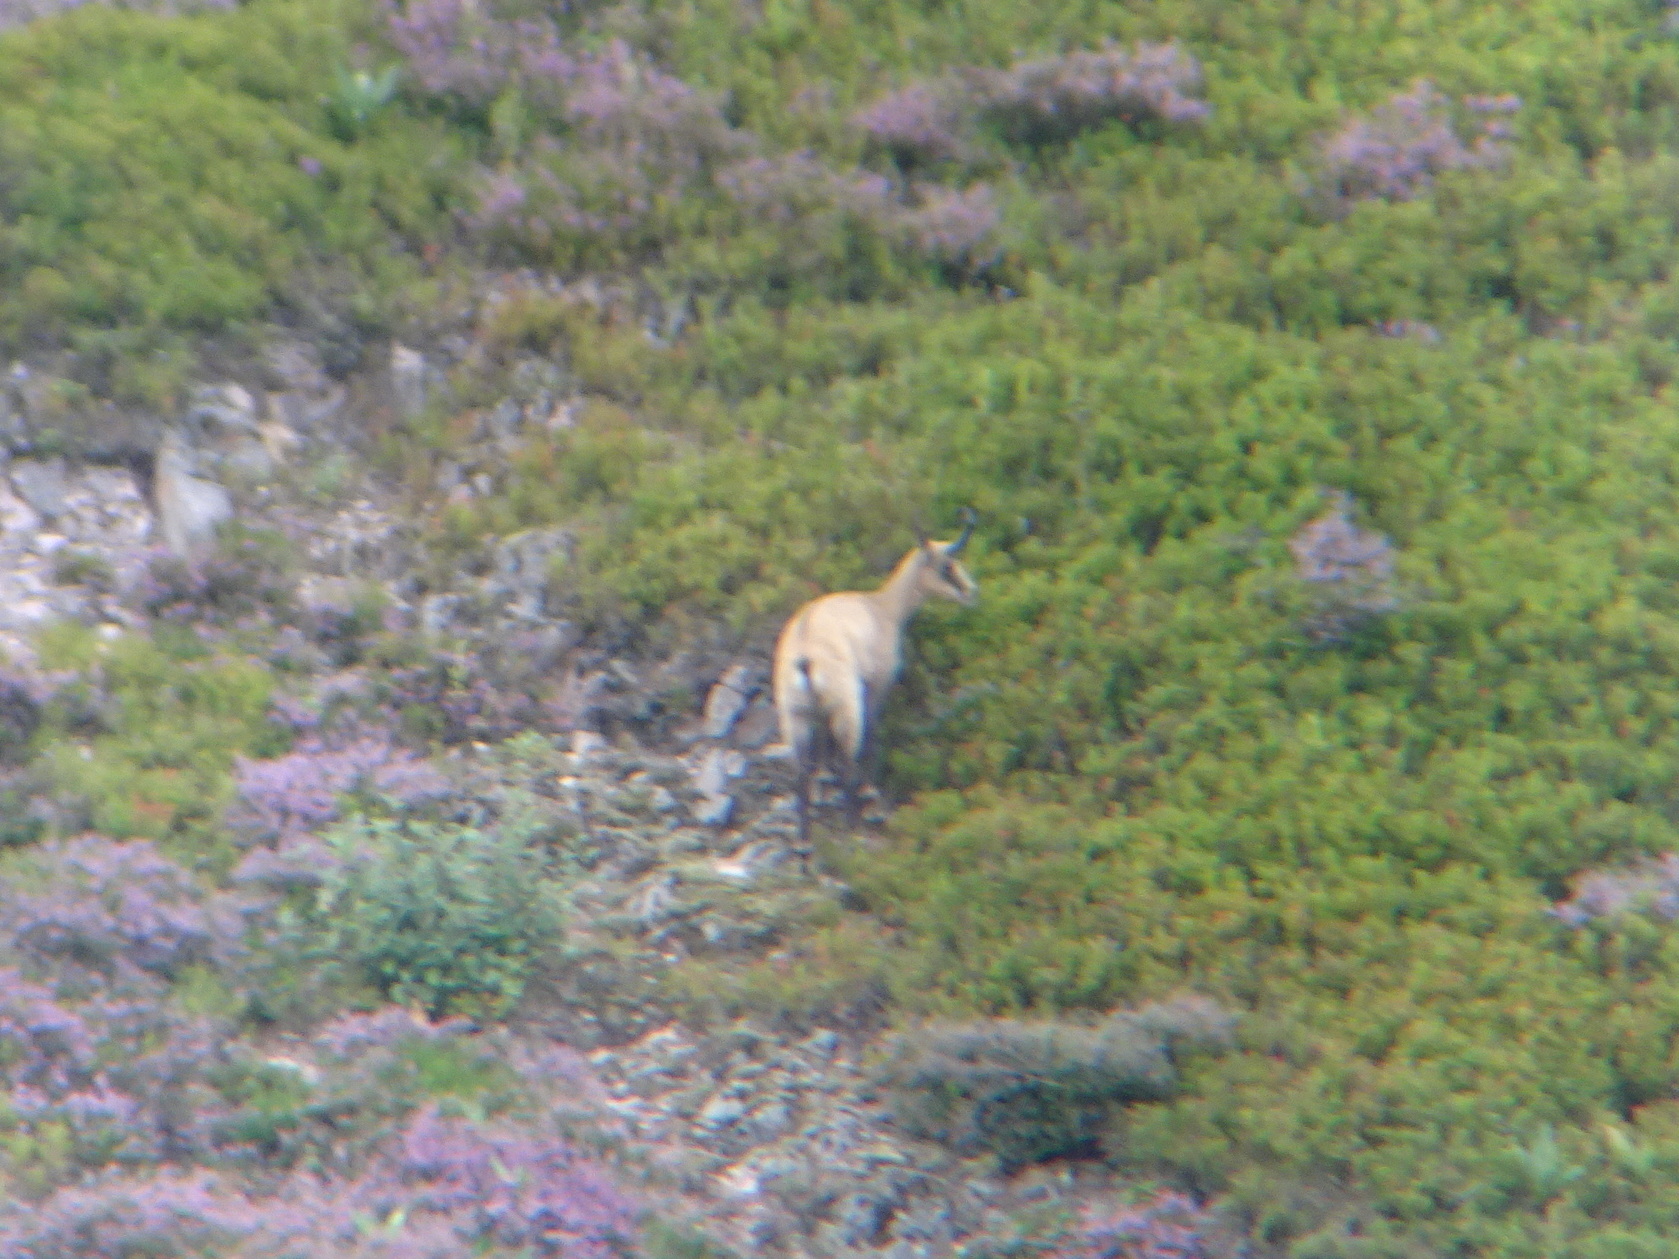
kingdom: Animalia
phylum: Chordata
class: Mammalia
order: Artiodactyla
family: Bovidae
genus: Rupicapra
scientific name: Rupicapra rupicapra
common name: Chamois
